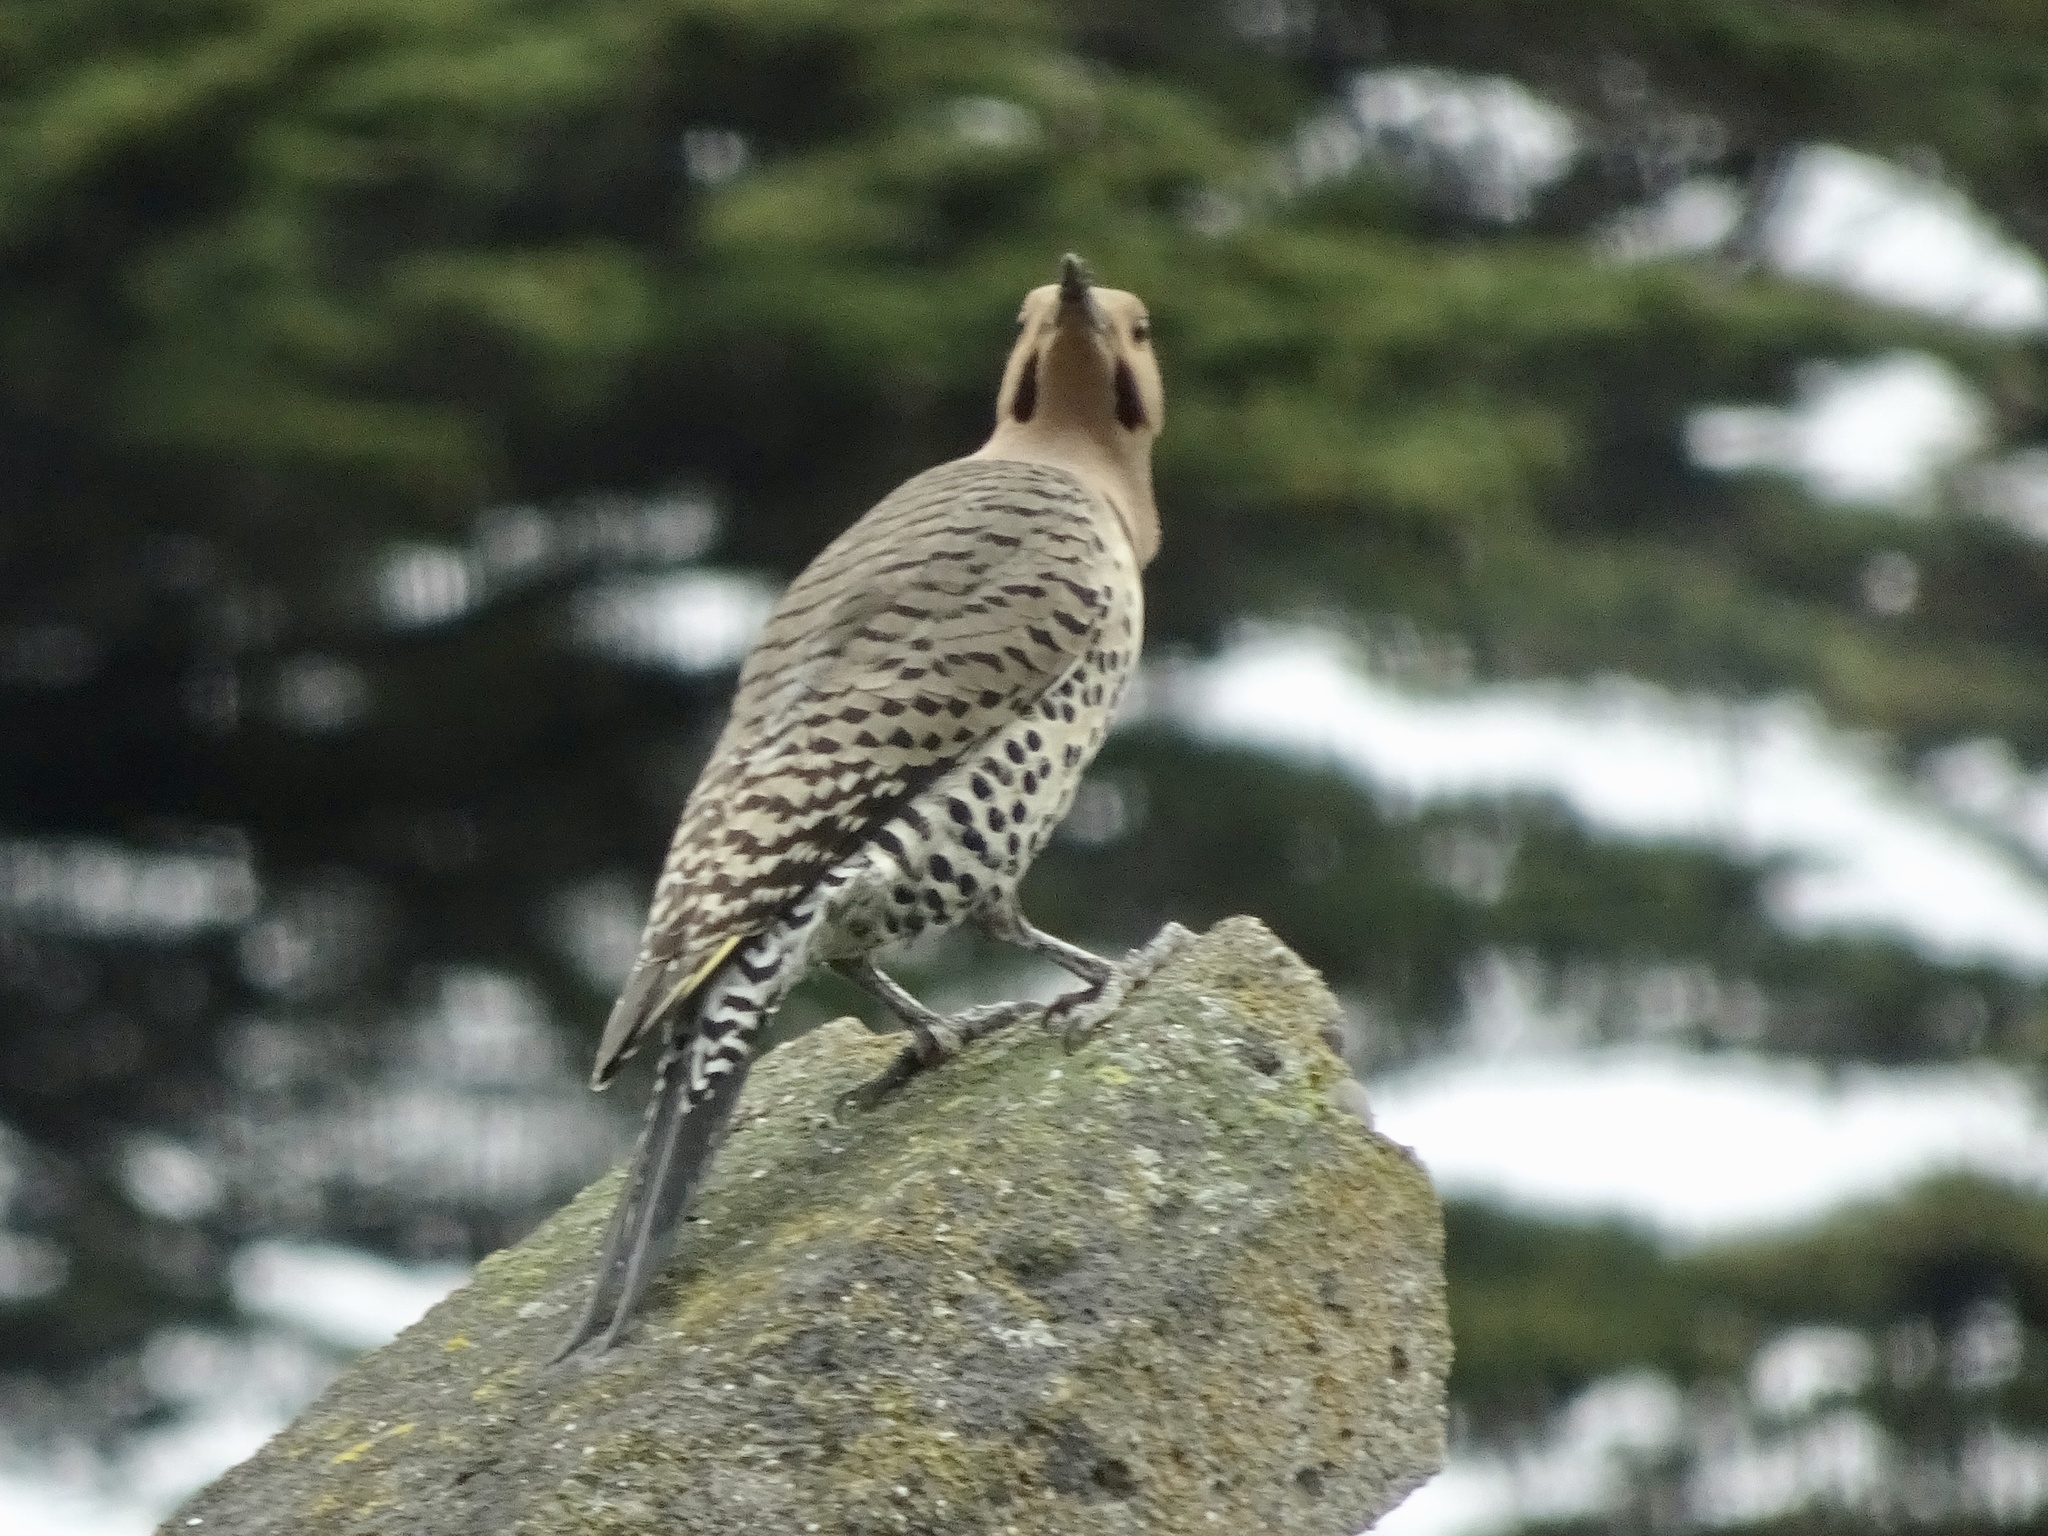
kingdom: Animalia
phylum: Chordata
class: Aves
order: Piciformes
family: Picidae
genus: Colaptes
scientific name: Colaptes auratus
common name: Northern flicker
